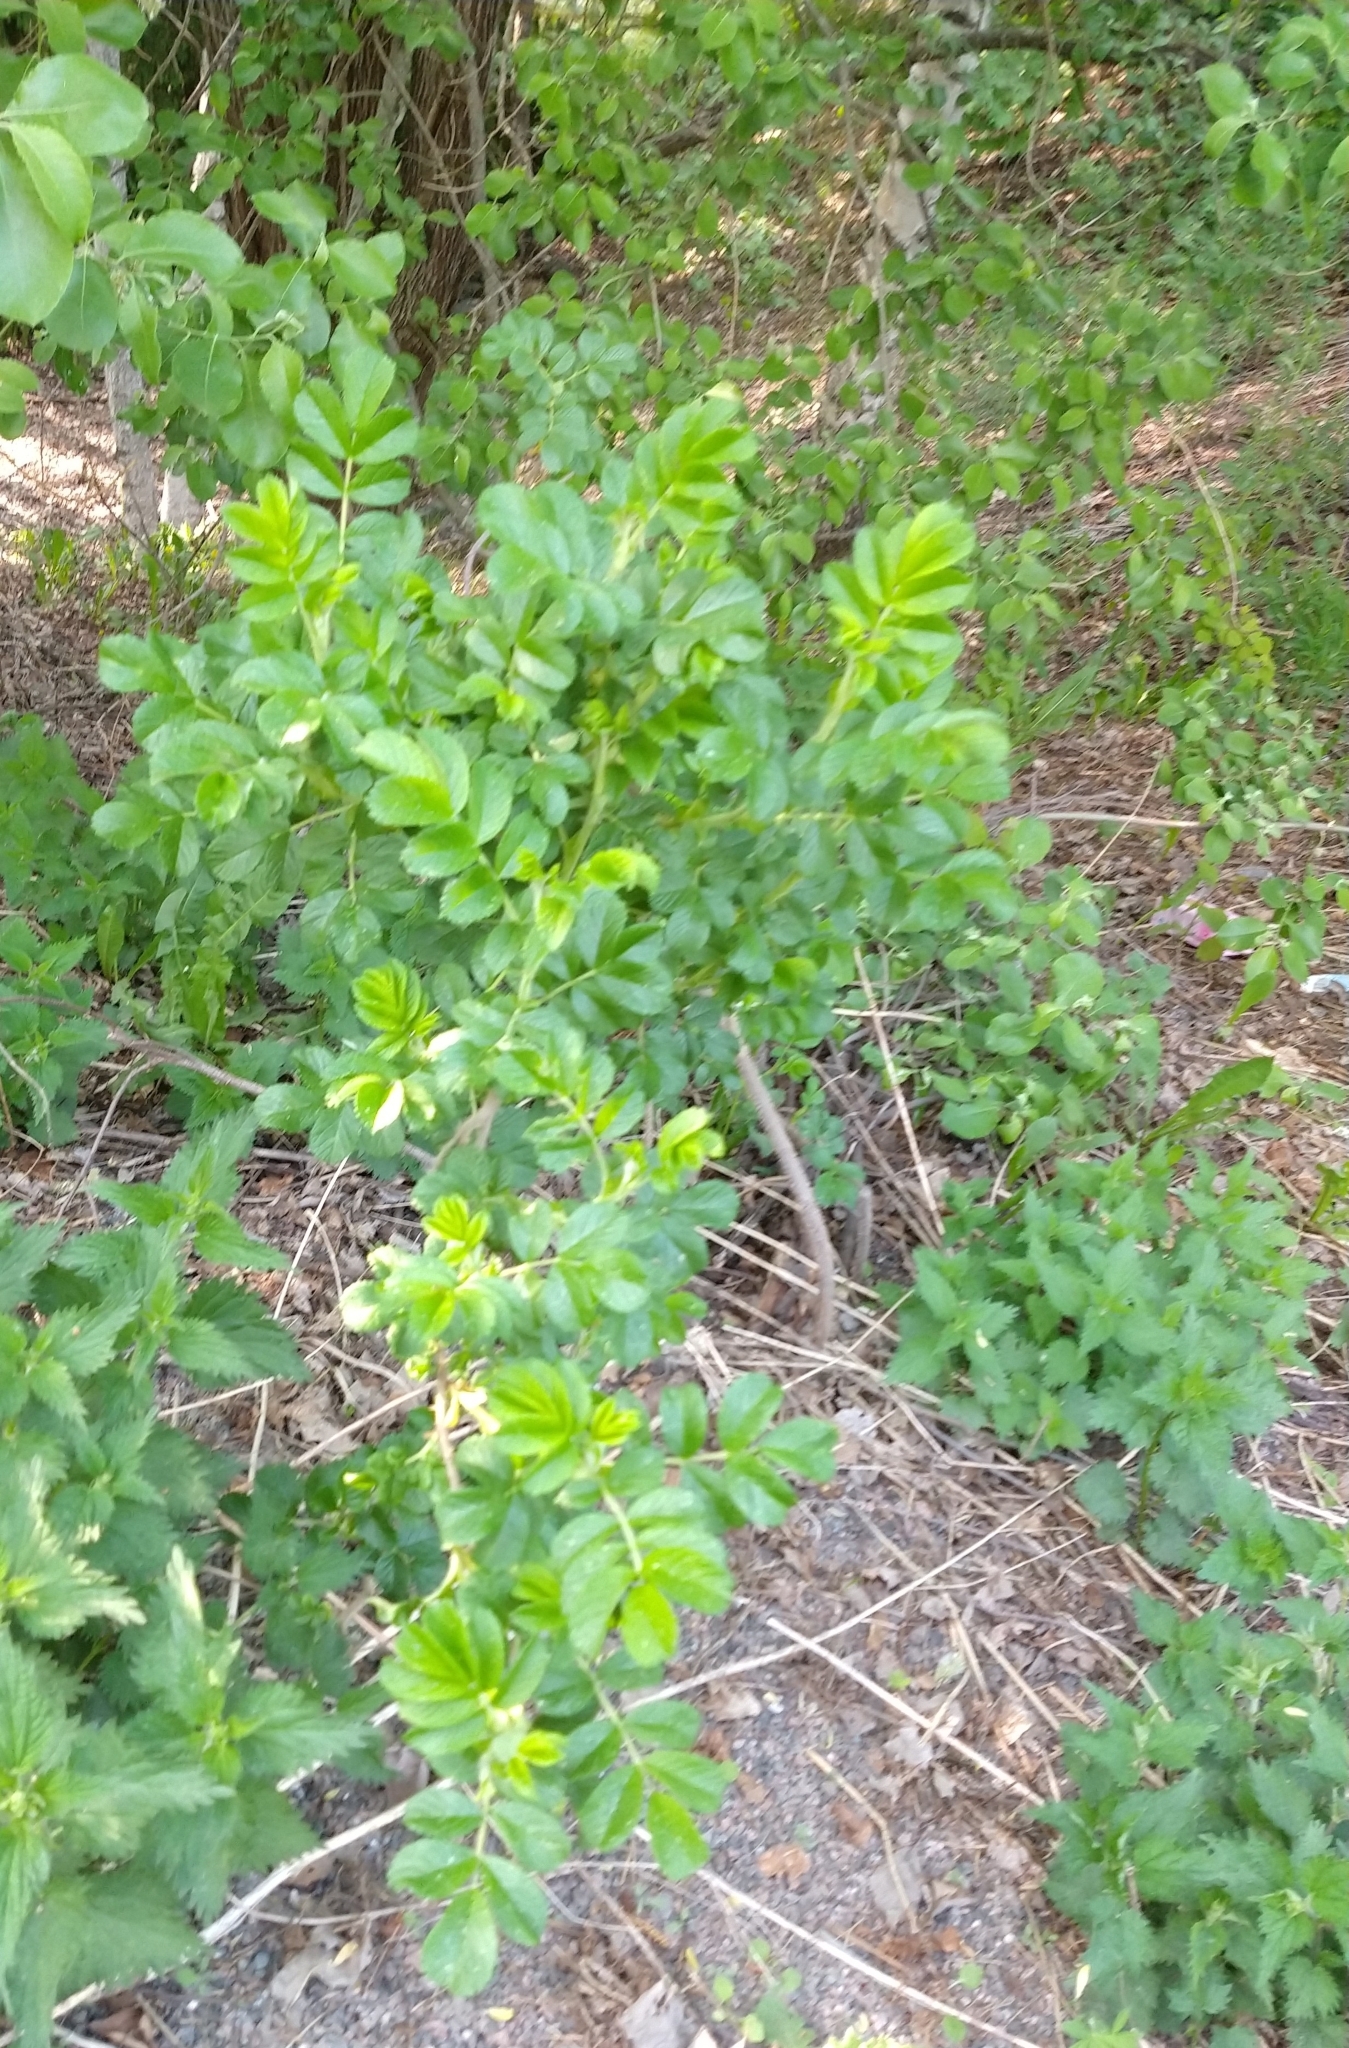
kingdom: Plantae
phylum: Tracheophyta
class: Magnoliopsida
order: Rosales
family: Rosaceae
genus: Rosa
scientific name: Rosa rugosa
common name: Japanese rose
